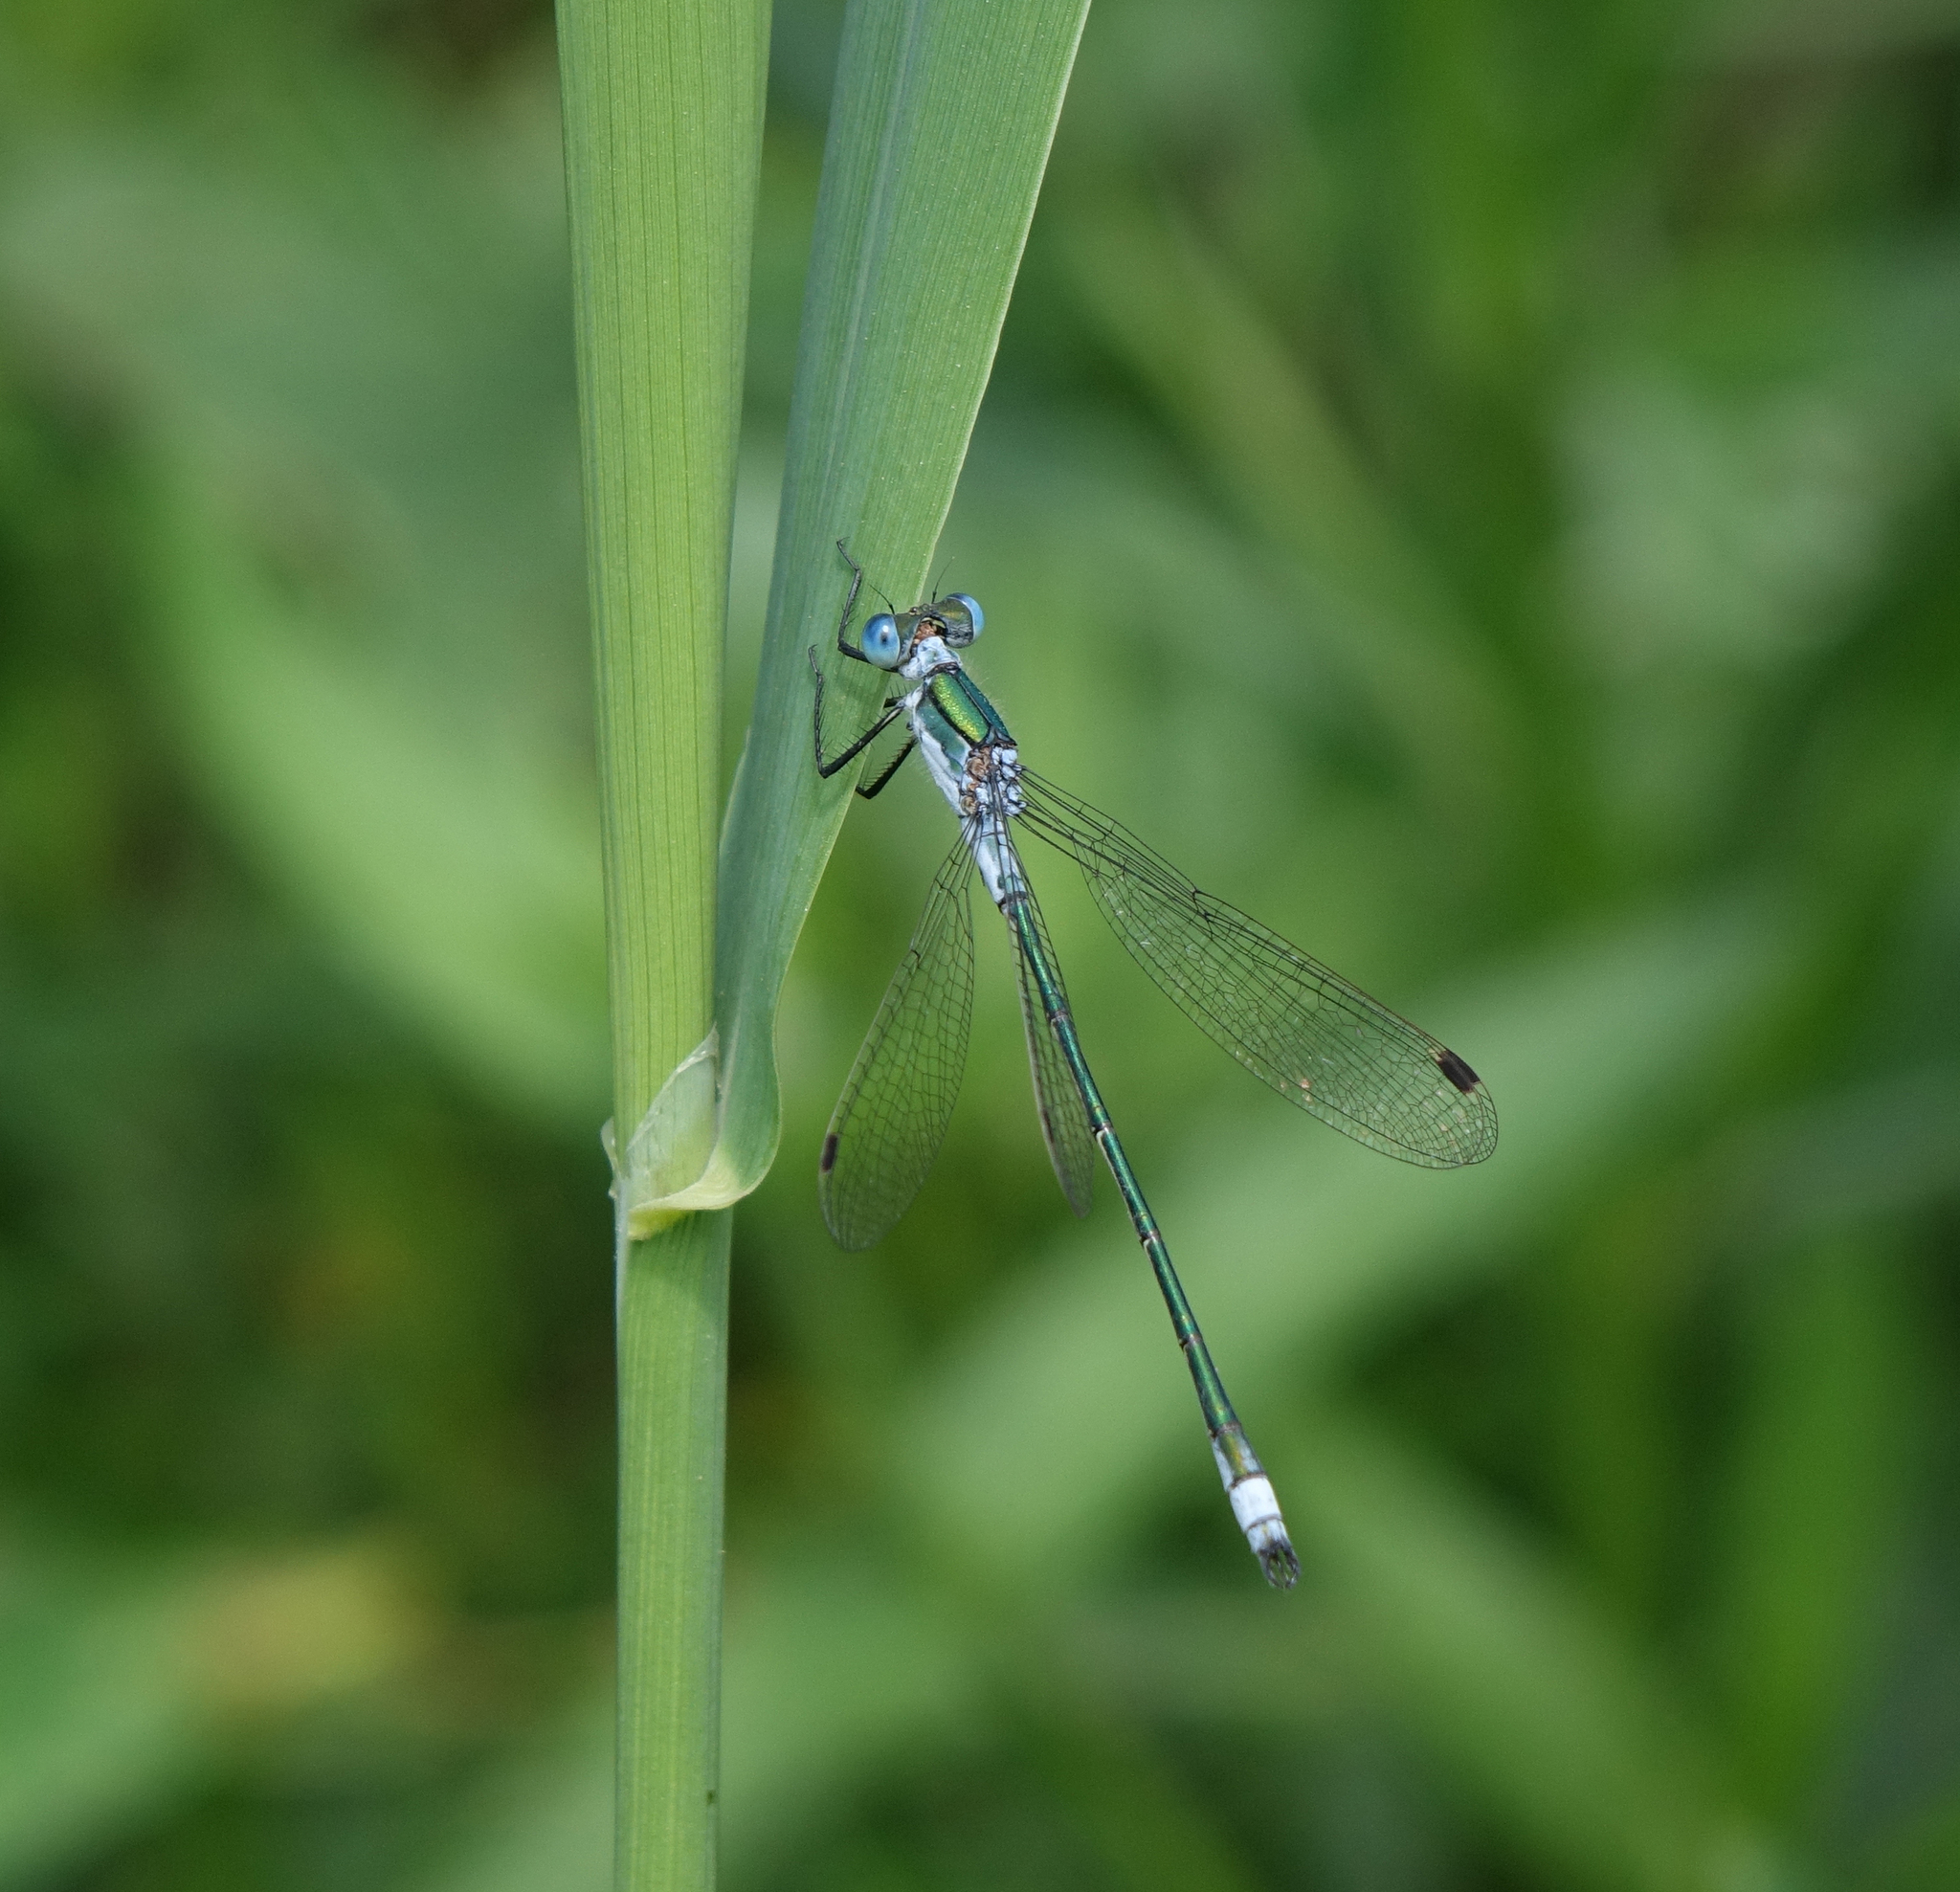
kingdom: Animalia
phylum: Arthropoda
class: Insecta
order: Odonata
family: Lestidae
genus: Lestes
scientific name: Lestes sponsa
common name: Common spreadwing
